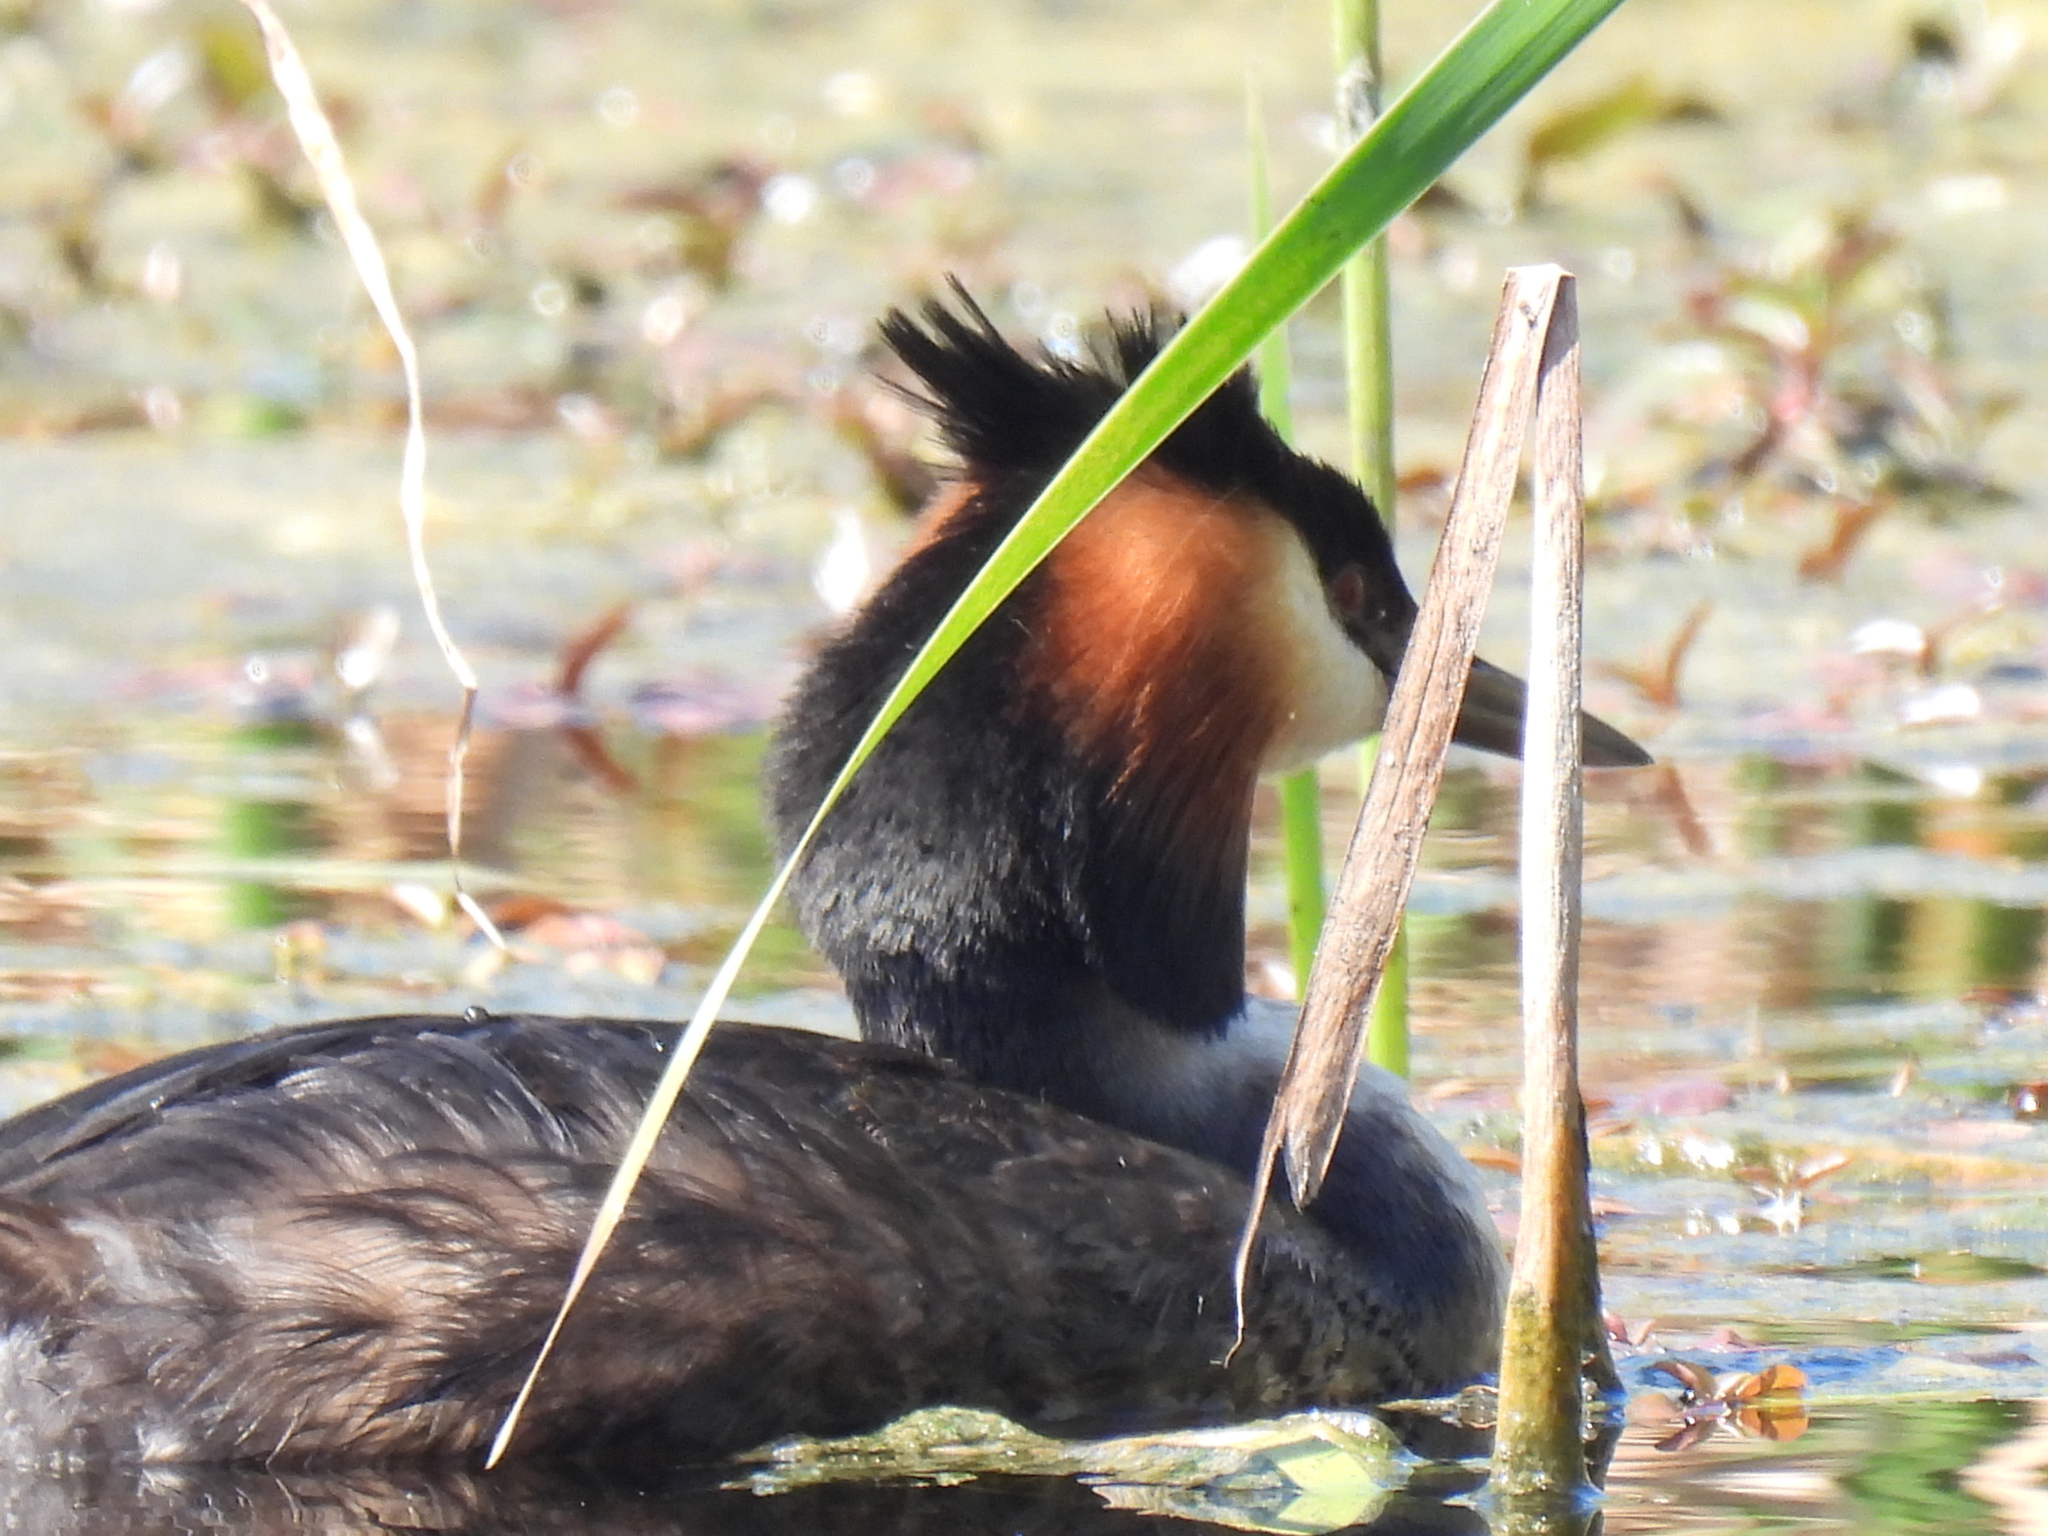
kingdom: Animalia
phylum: Chordata
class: Aves
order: Podicipediformes
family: Podicipedidae
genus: Podiceps
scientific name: Podiceps cristatus
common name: Great crested grebe
